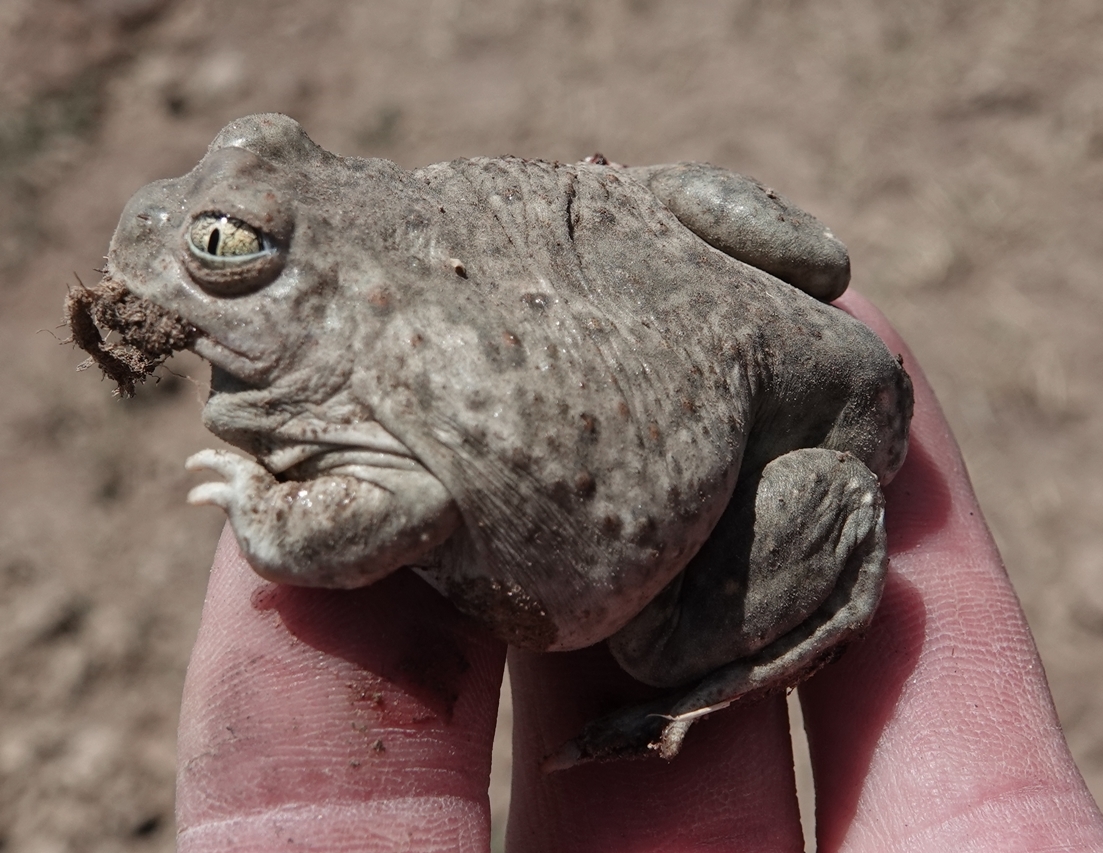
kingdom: Animalia
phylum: Chordata
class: Amphibia
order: Anura
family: Scaphiopodidae
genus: Spea
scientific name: Spea bombifrons
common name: Plains spadefoot
